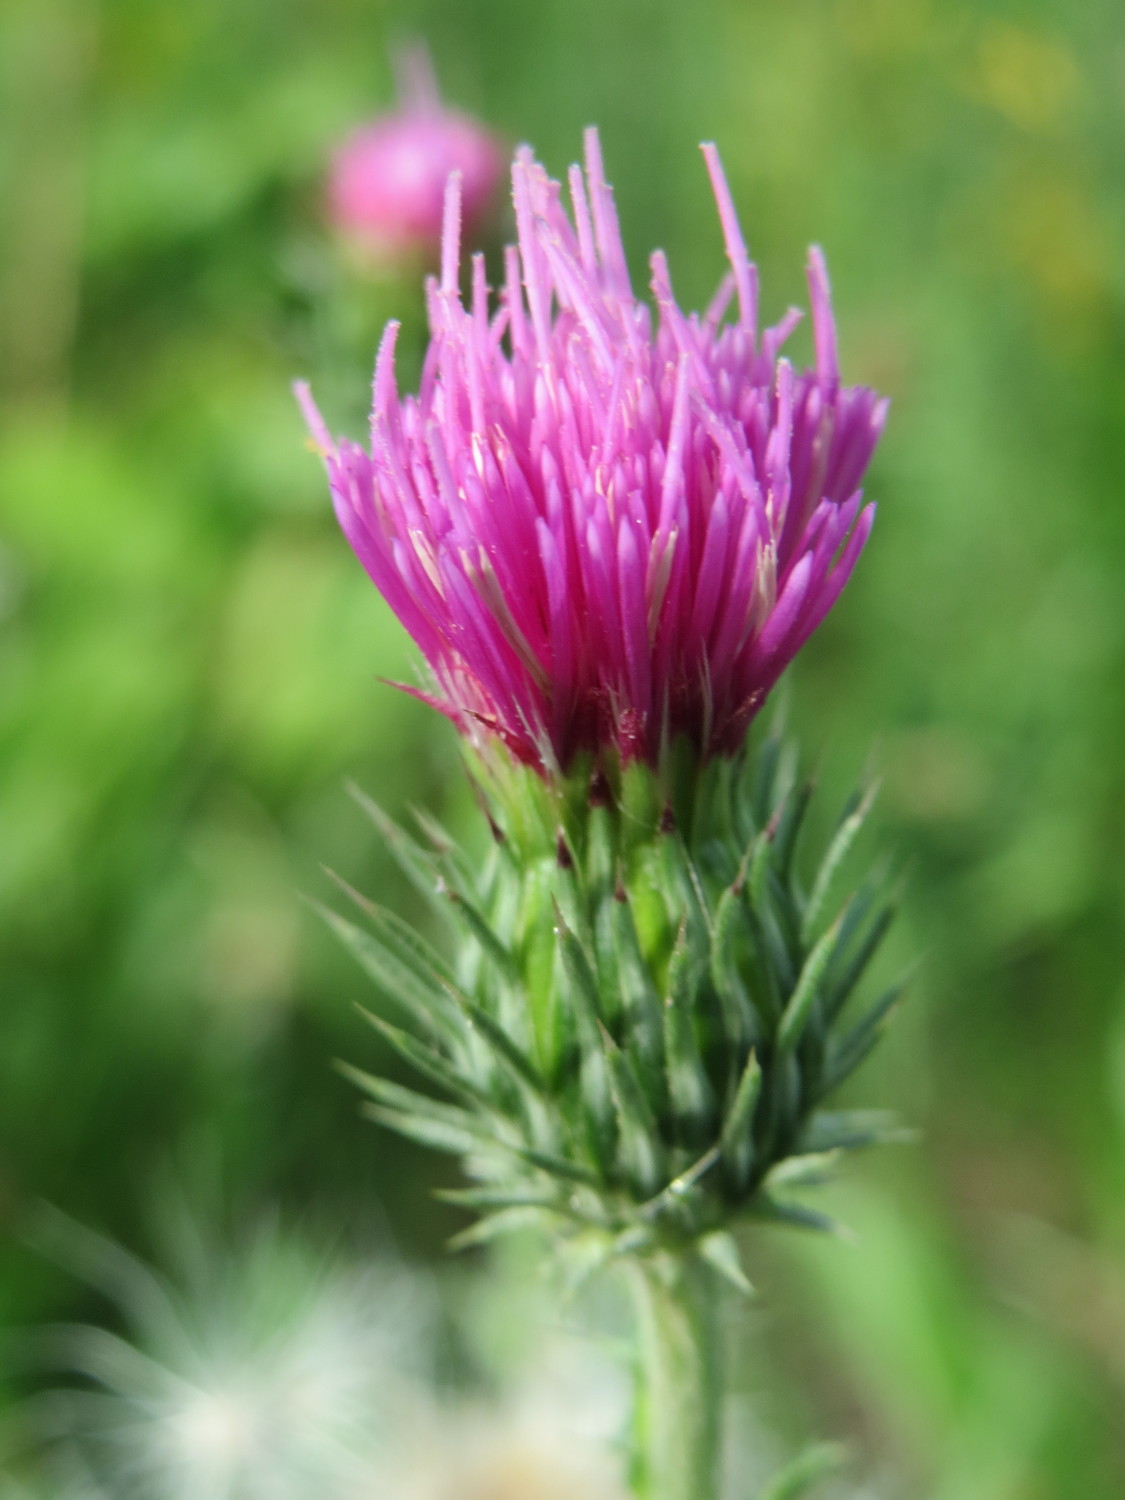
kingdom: Plantae
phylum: Tracheophyta
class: Magnoliopsida
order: Asterales
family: Asteraceae
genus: Carduus
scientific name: Carduus acanthoides
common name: Plumeless thistle
